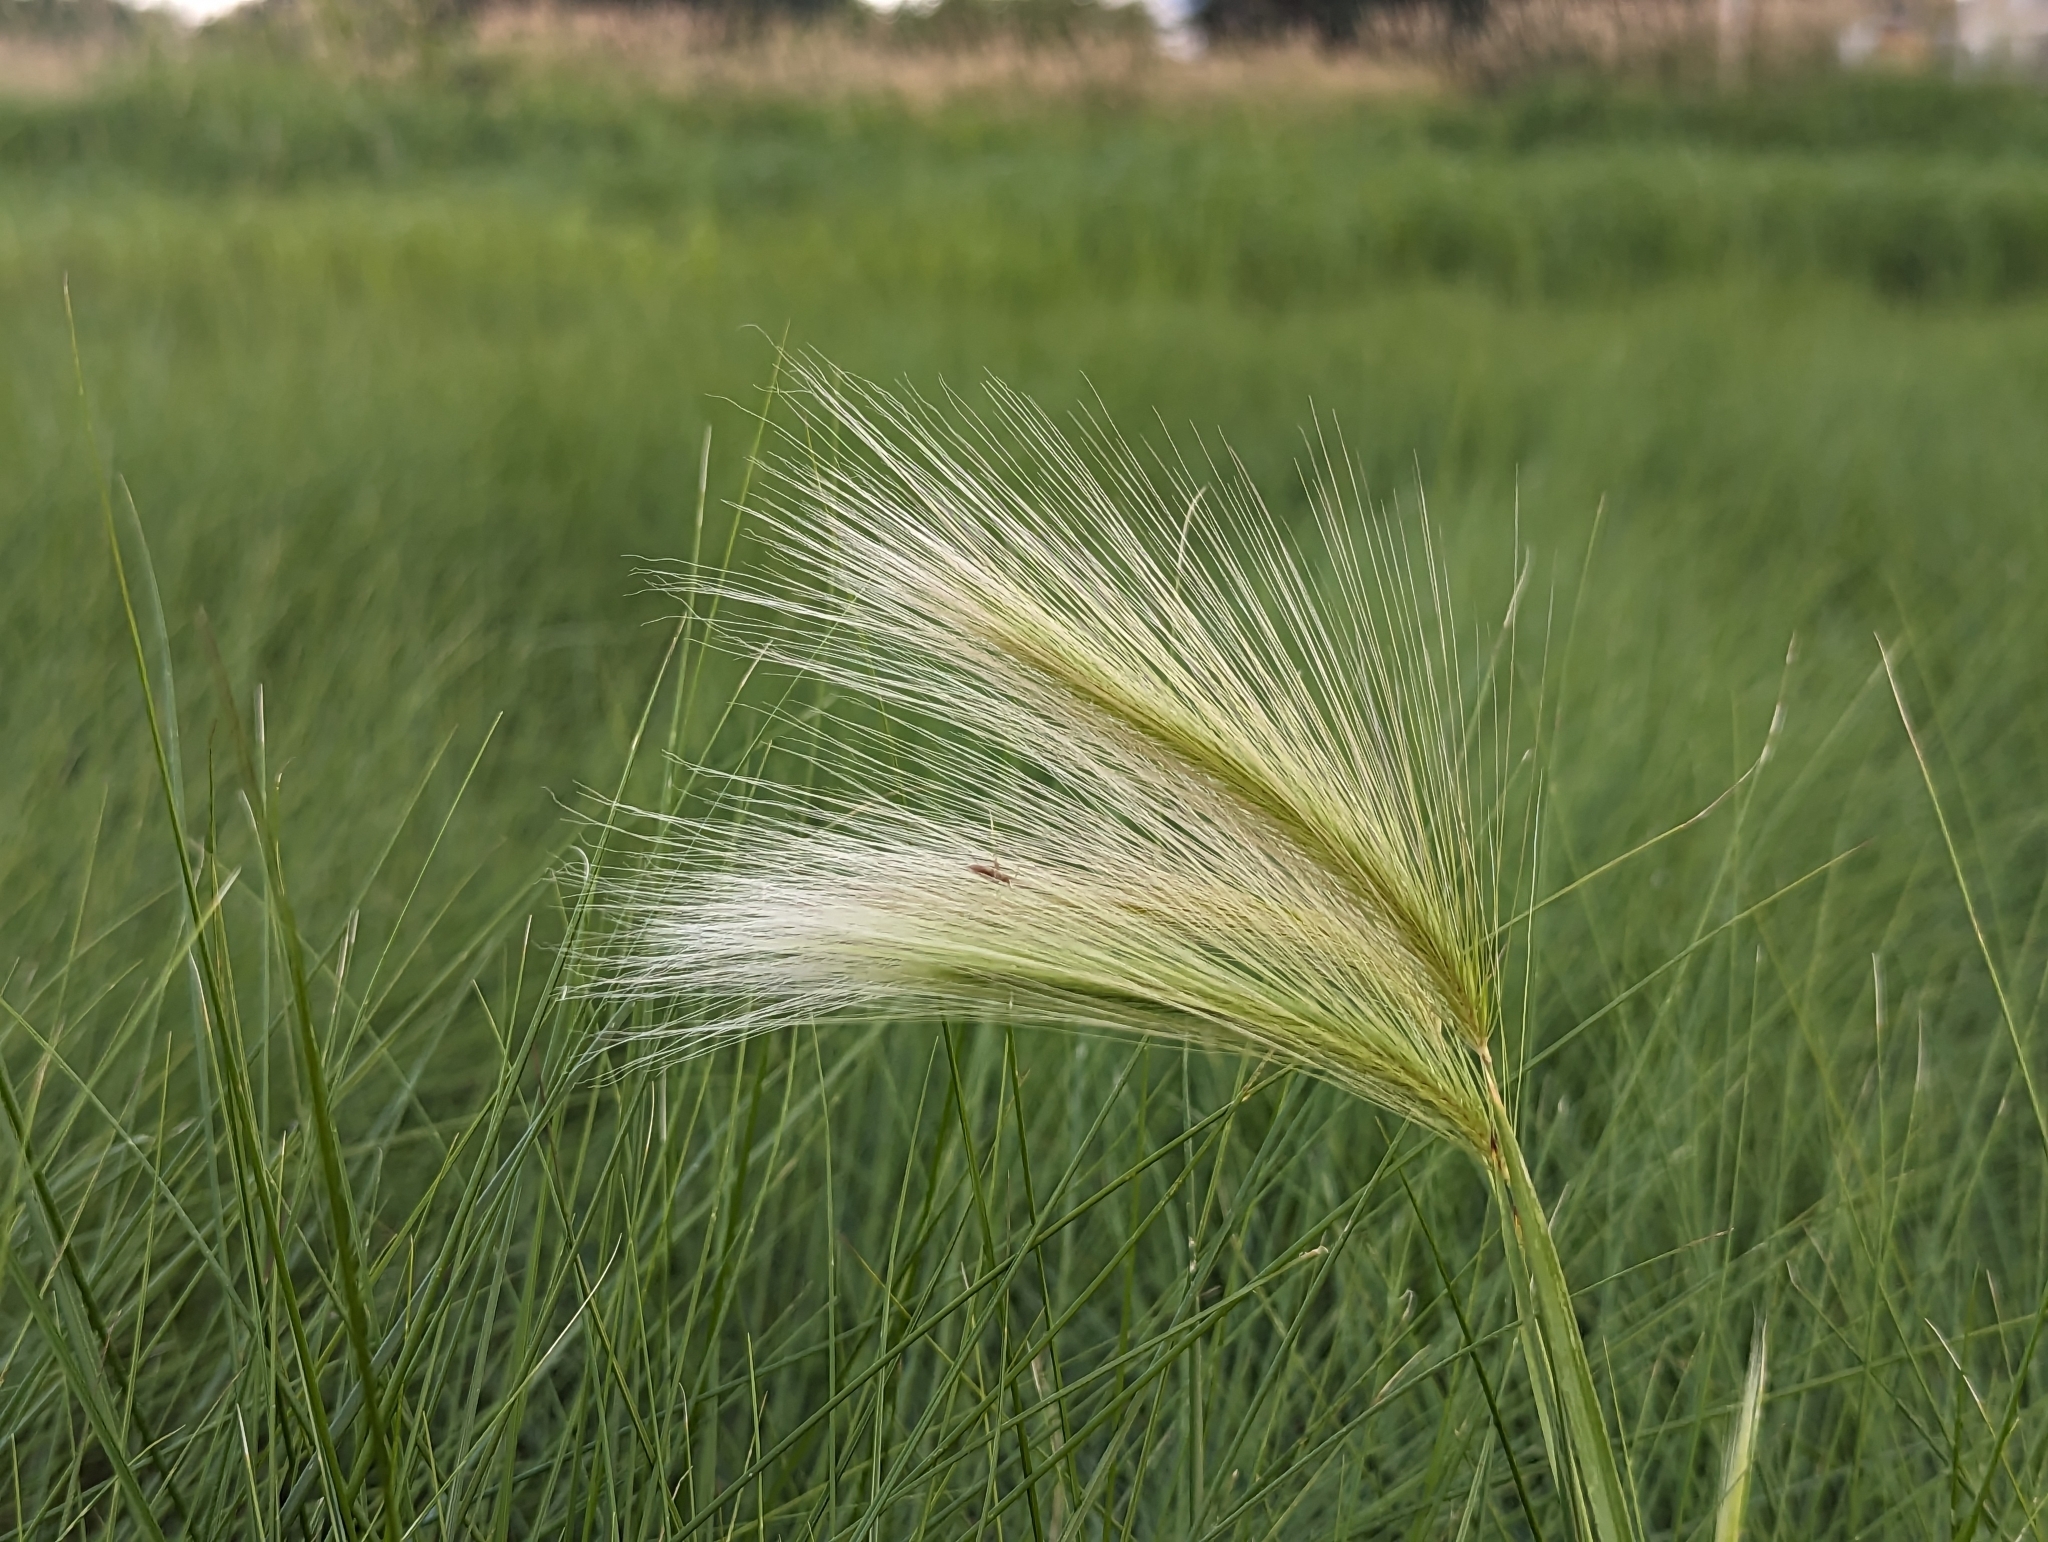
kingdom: Plantae
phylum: Tracheophyta
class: Liliopsida
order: Poales
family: Poaceae
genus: Hordeum
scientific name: Hordeum jubatum
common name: Foxtail barley
